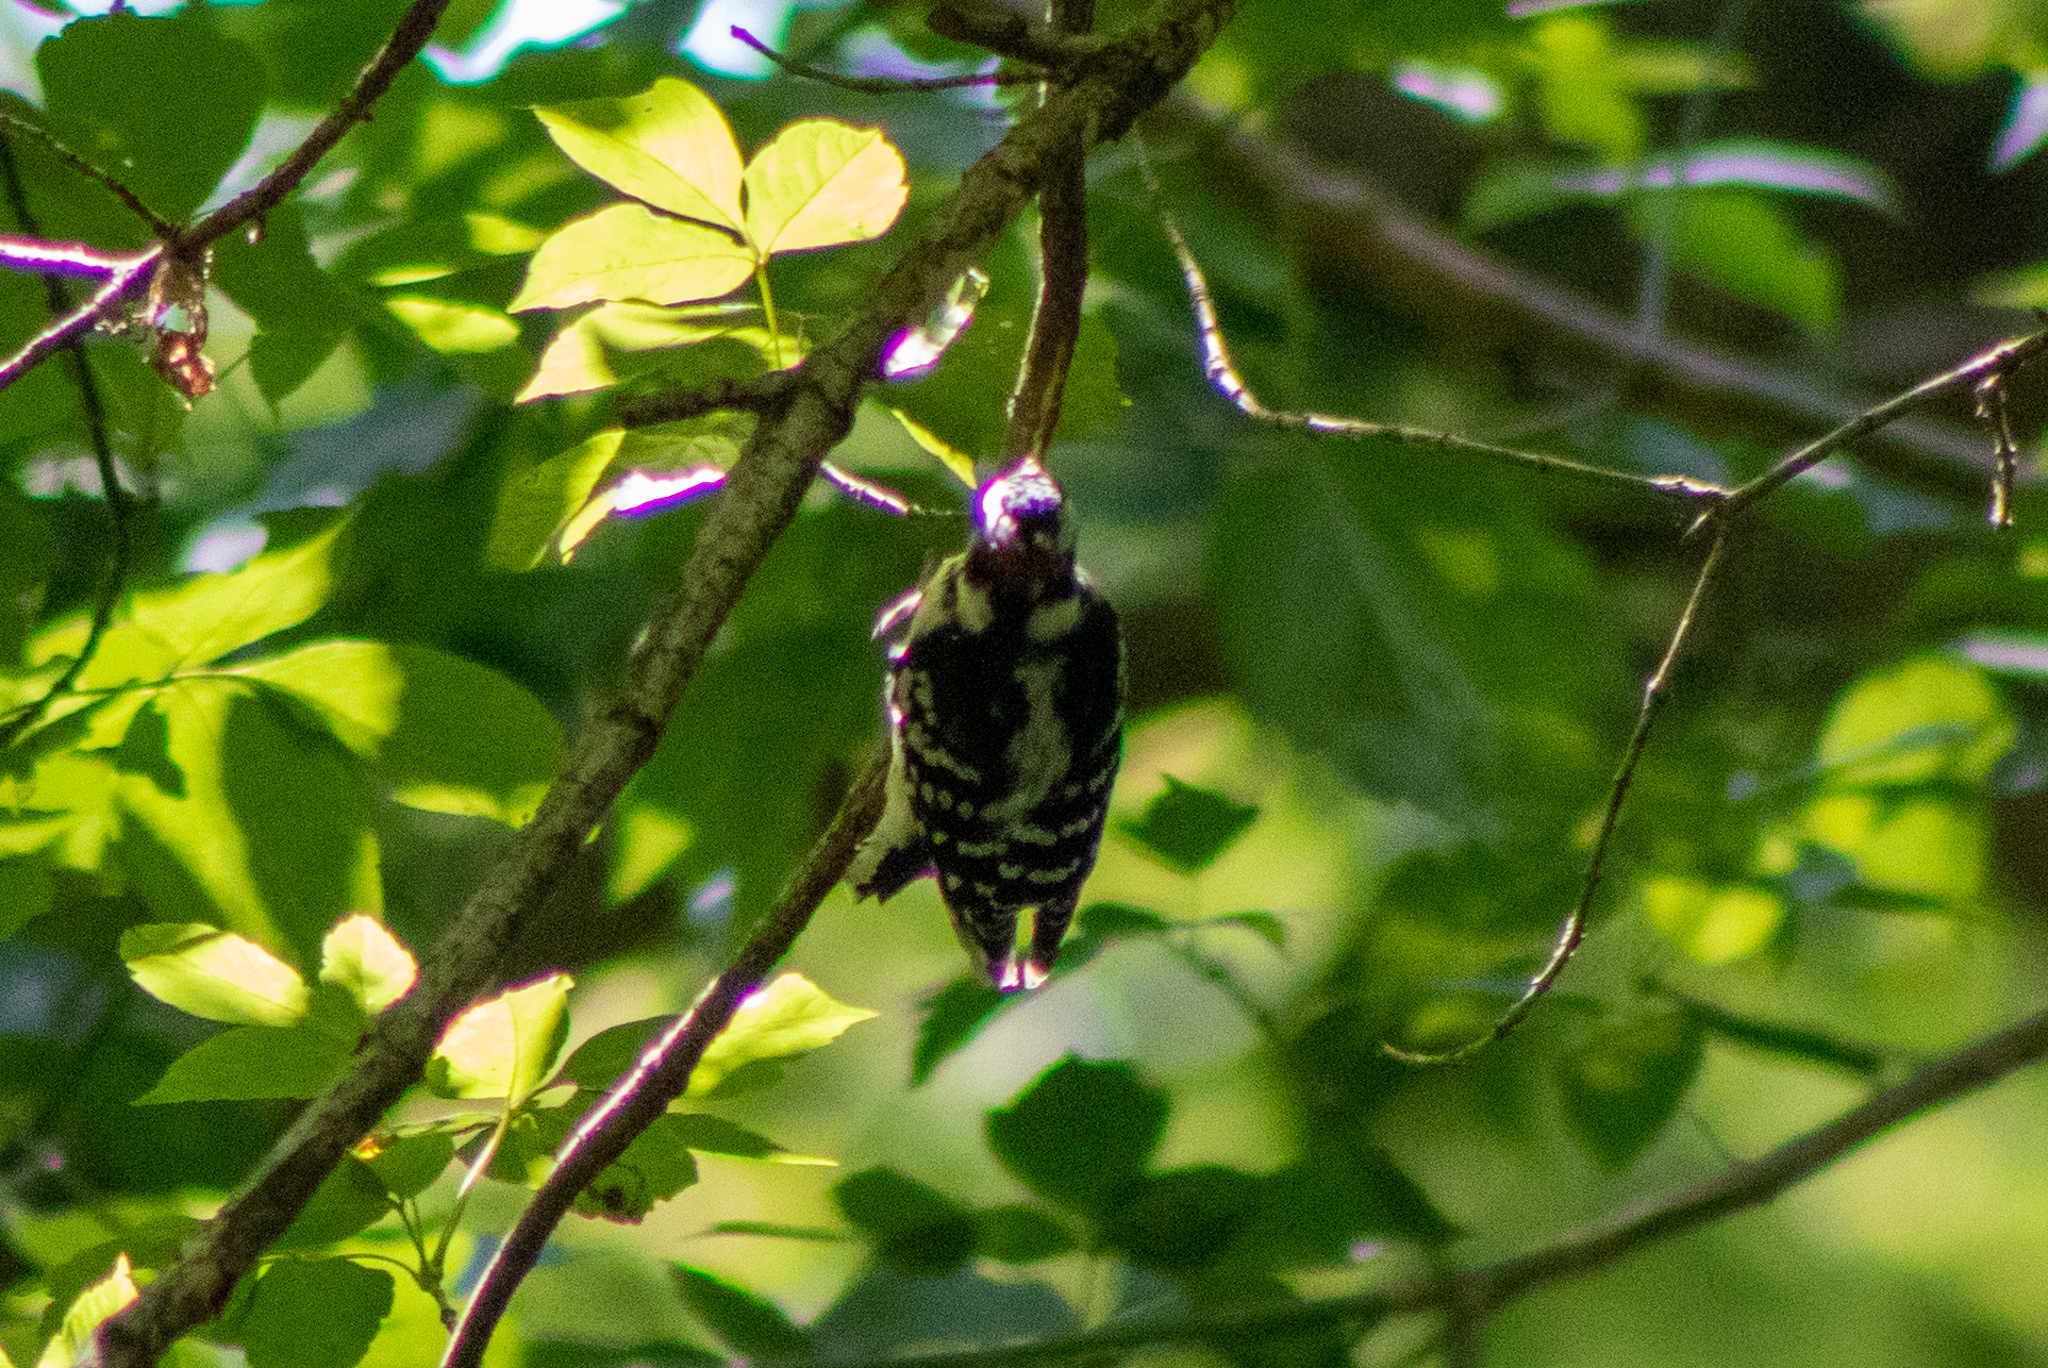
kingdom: Animalia
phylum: Chordata
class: Aves
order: Piciformes
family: Picidae
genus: Dryobates
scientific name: Dryobates pubescens
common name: Downy woodpecker
